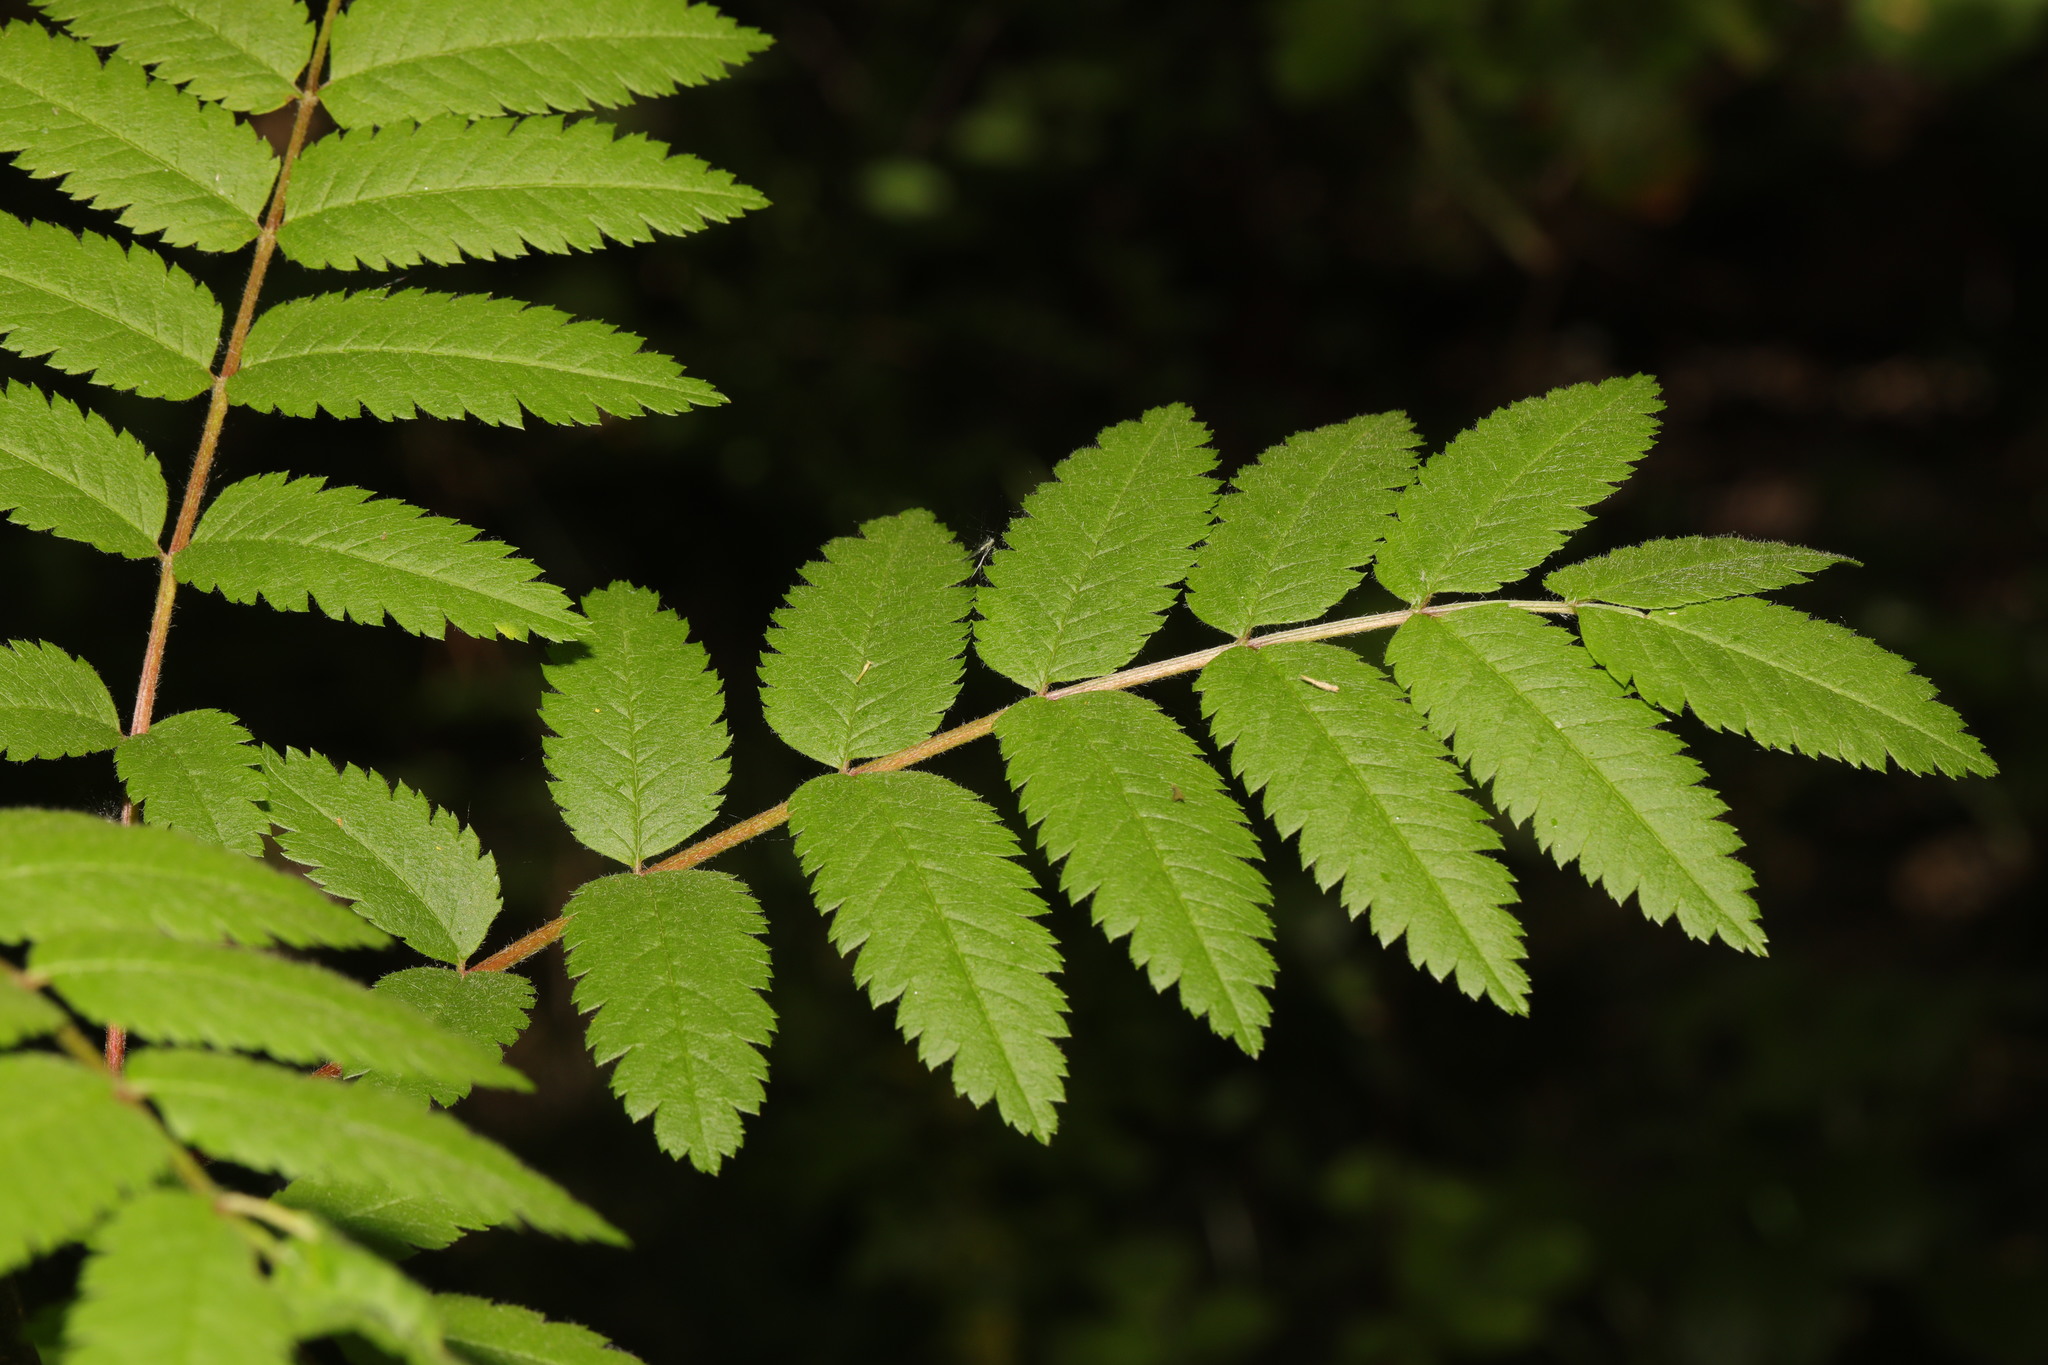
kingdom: Plantae
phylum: Tracheophyta
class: Magnoliopsida
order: Rosales
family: Rosaceae
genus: Sorbus
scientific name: Sorbus aucuparia
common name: Rowan
